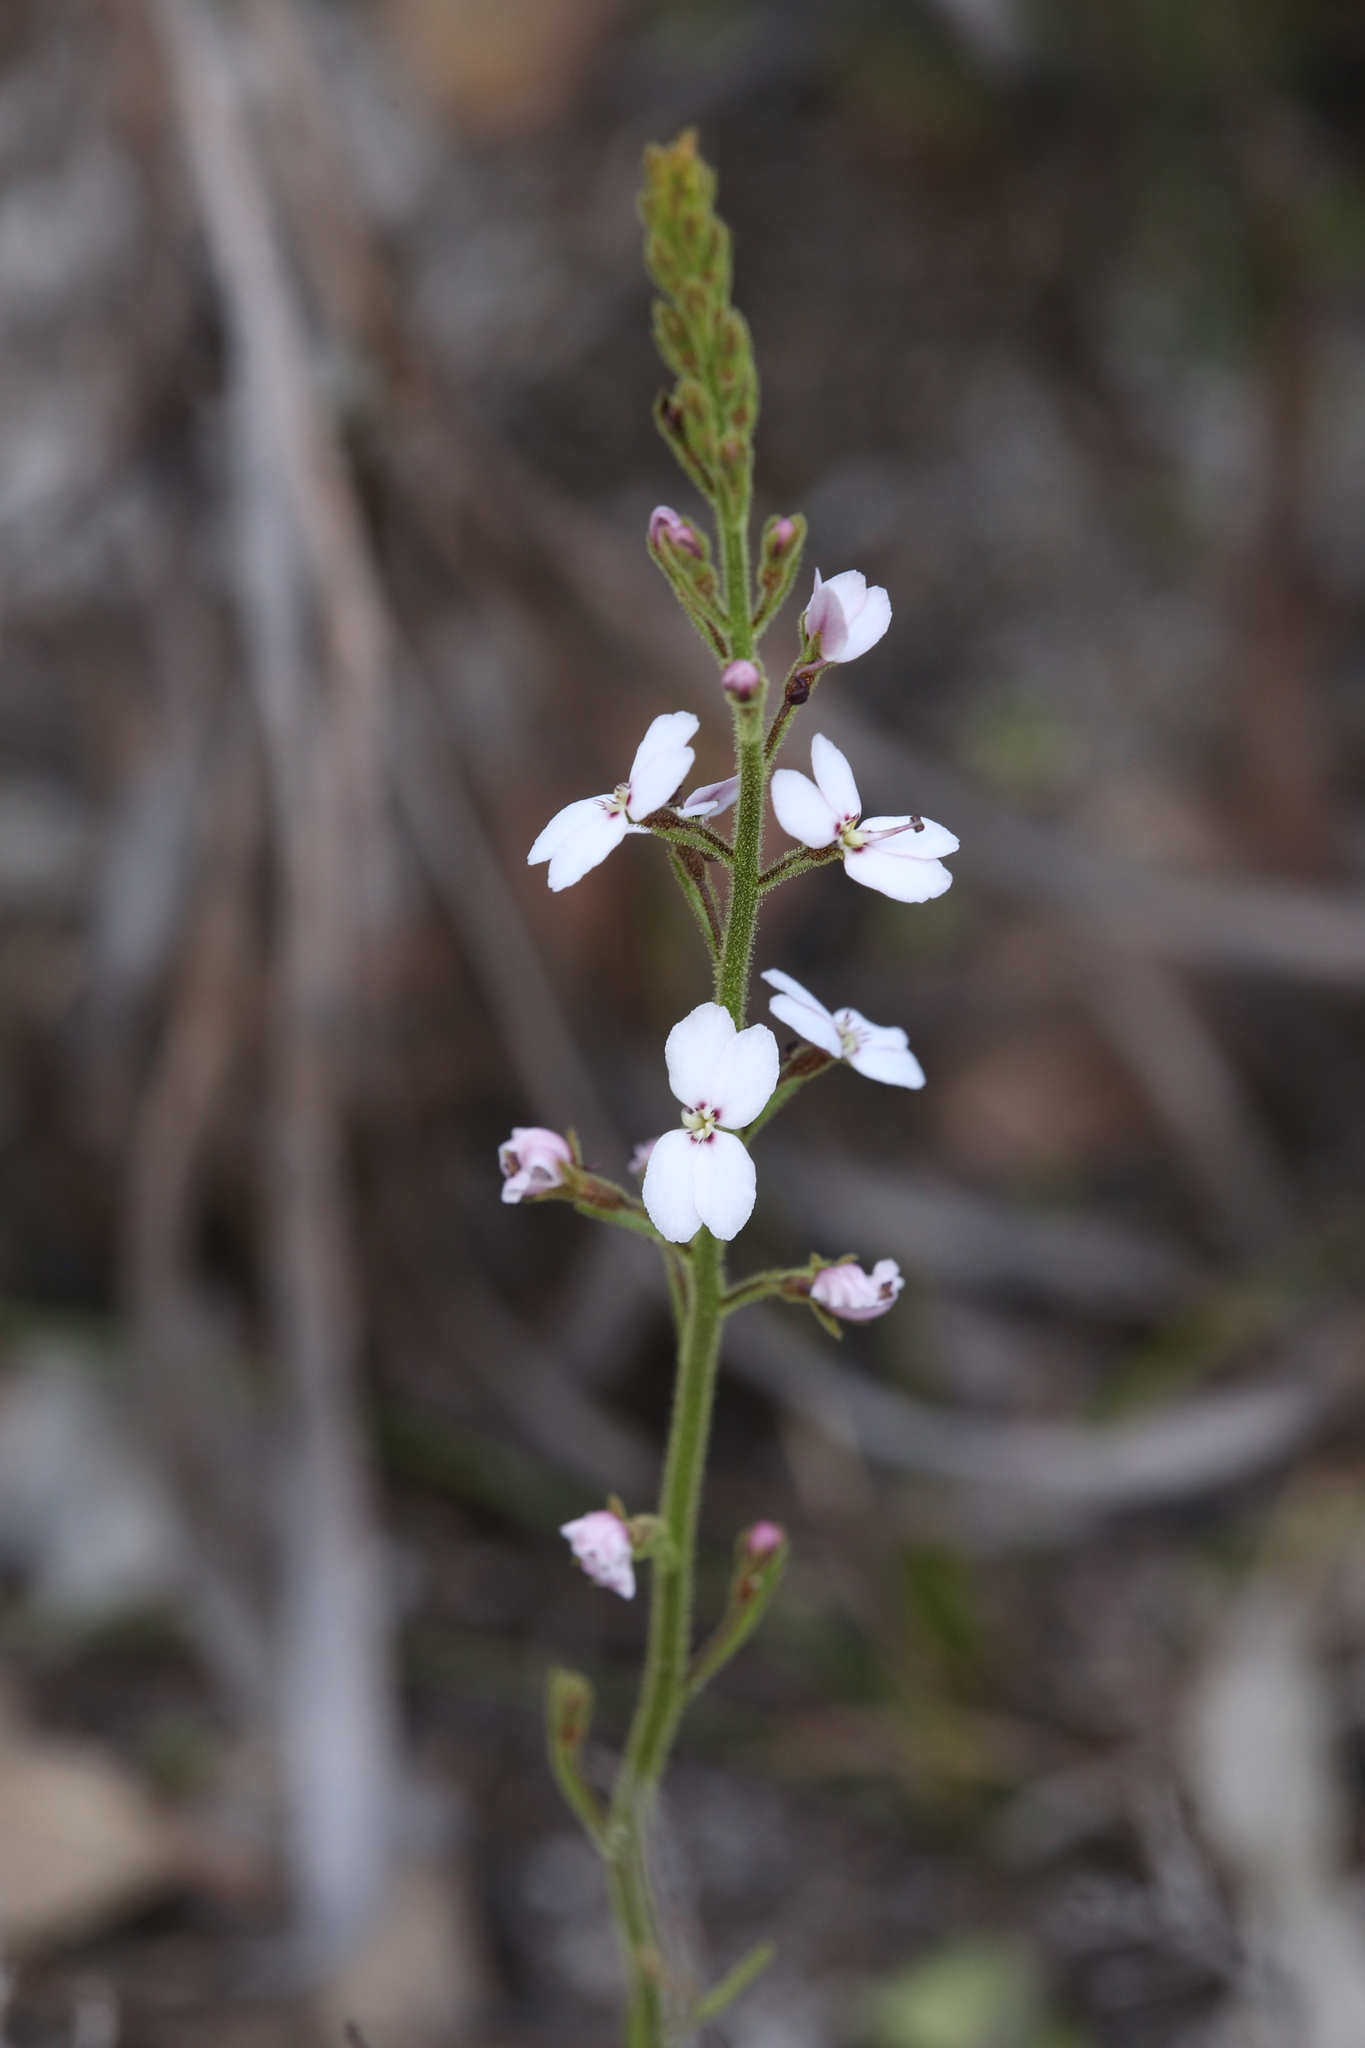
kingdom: Plantae
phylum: Tracheophyta
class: Magnoliopsida
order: Asterales
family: Stylidiaceae
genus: Stylidium
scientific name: Stylidium barleei
